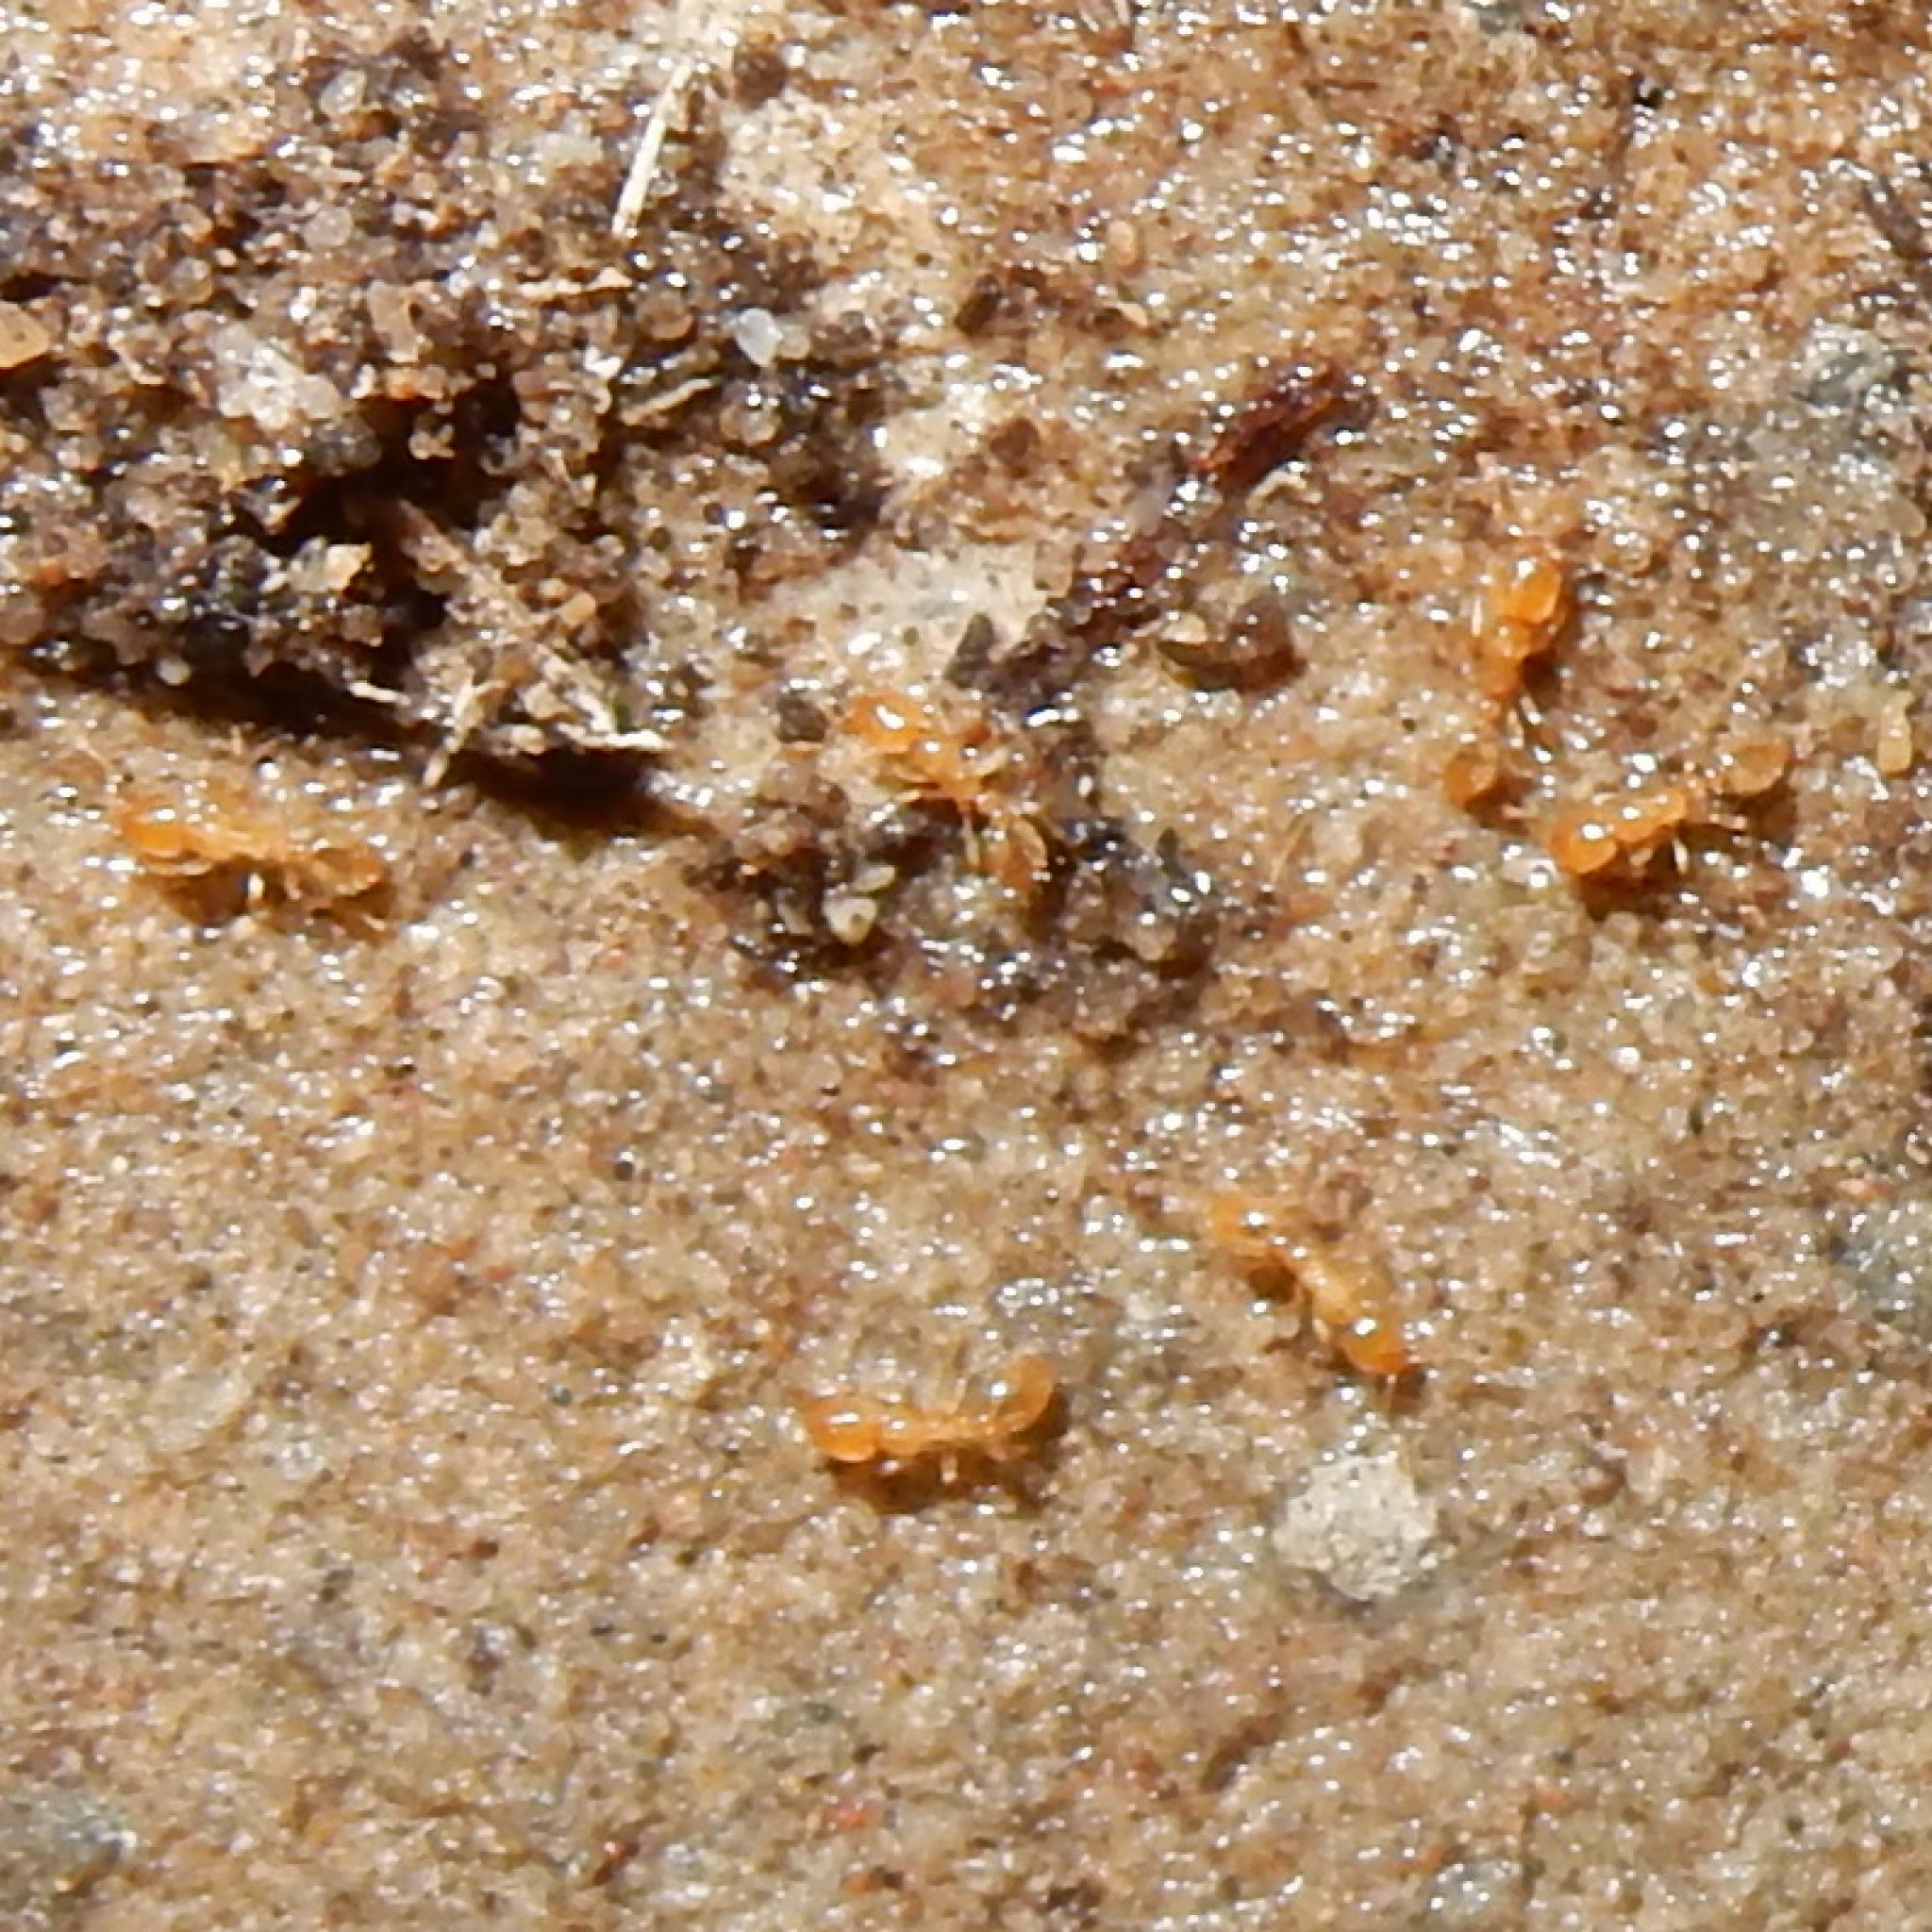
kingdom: Animalia
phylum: Arthropoda
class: Insecta
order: Hymenoptera
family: Formicidae
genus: Solenopsis
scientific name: Solenopsis punctaticeps
